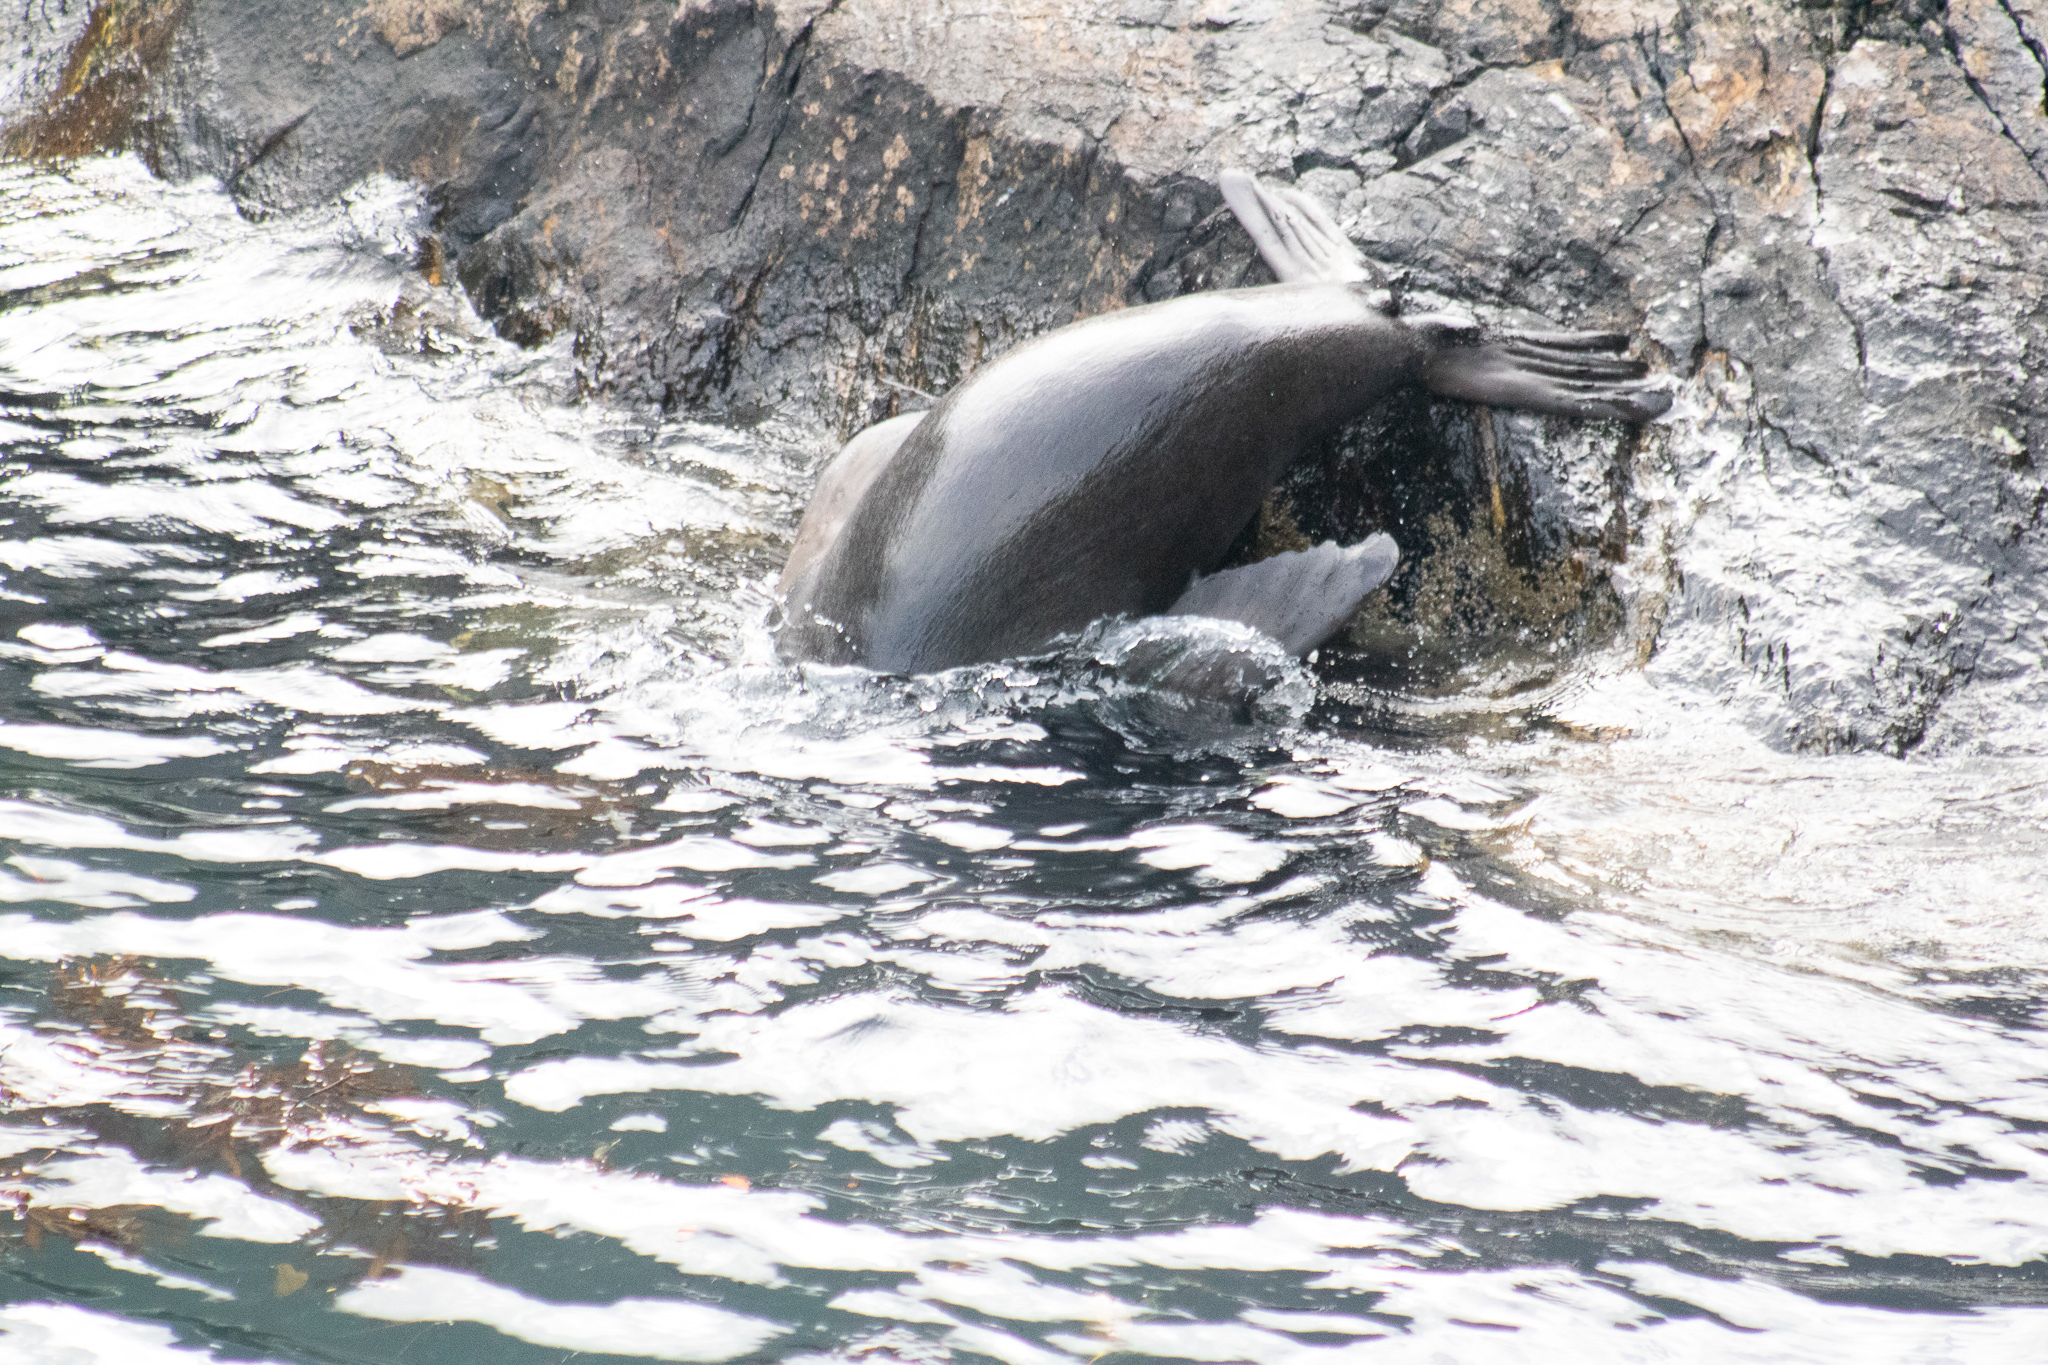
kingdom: Animalia
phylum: Chordata
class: Mammalia
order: Carnivora
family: Otariidae
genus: Arctocephalus
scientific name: Arctocephalus forsteri
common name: New zealand fur seal
